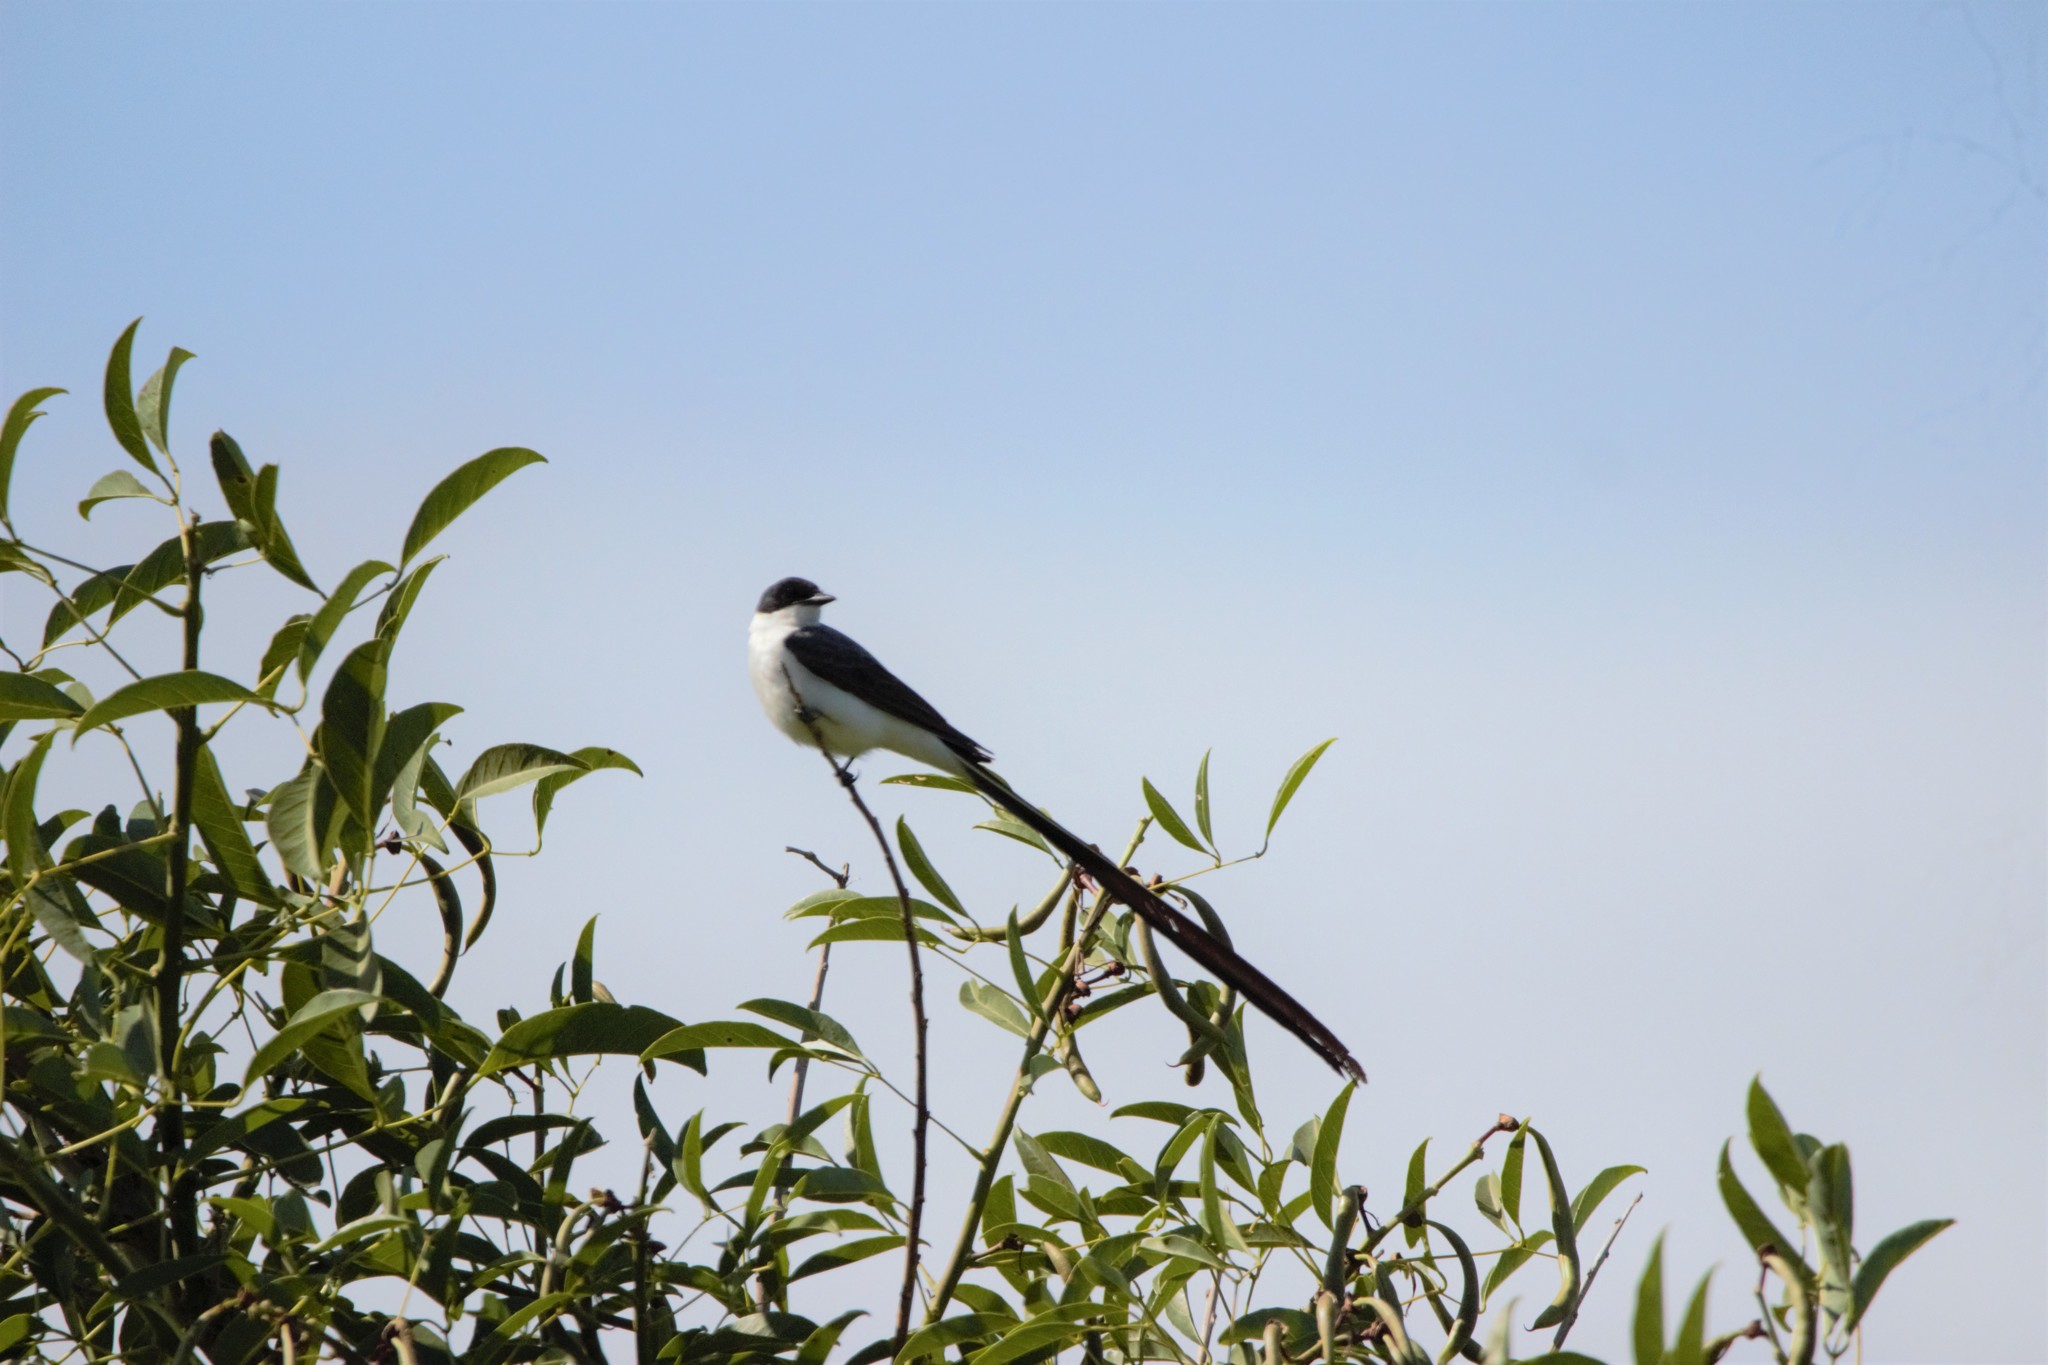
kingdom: Animalia
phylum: Chordata
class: Aves
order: Passeriformes
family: Tyrannidae
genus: Tyrannus
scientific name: Tyrannus savana
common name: Fork-tailed flycatcher
